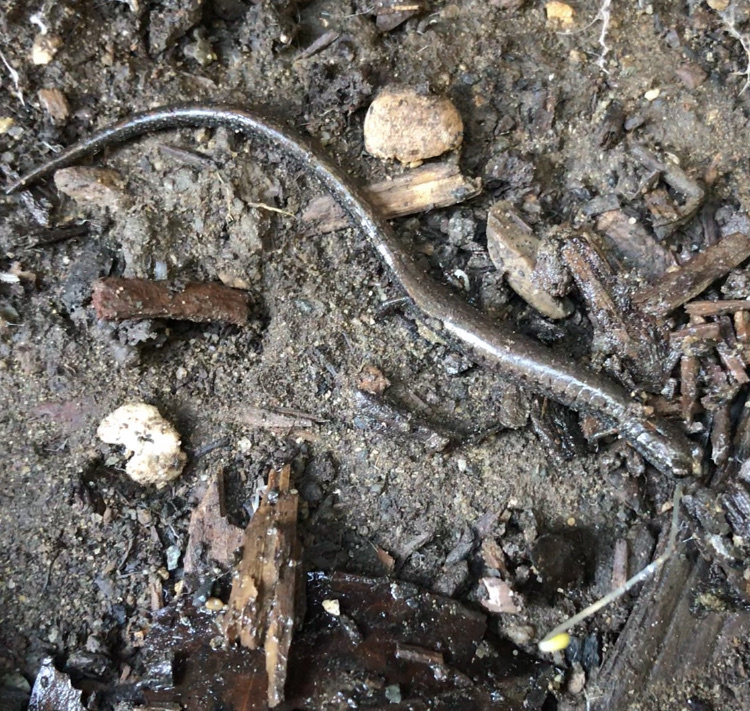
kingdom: Animalia
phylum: Chordata
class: Amphibia
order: Caudata
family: Plethodontidae
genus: Batrachoseps
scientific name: Batrachoseps nigriventris
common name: Black-bellied slender salamander
